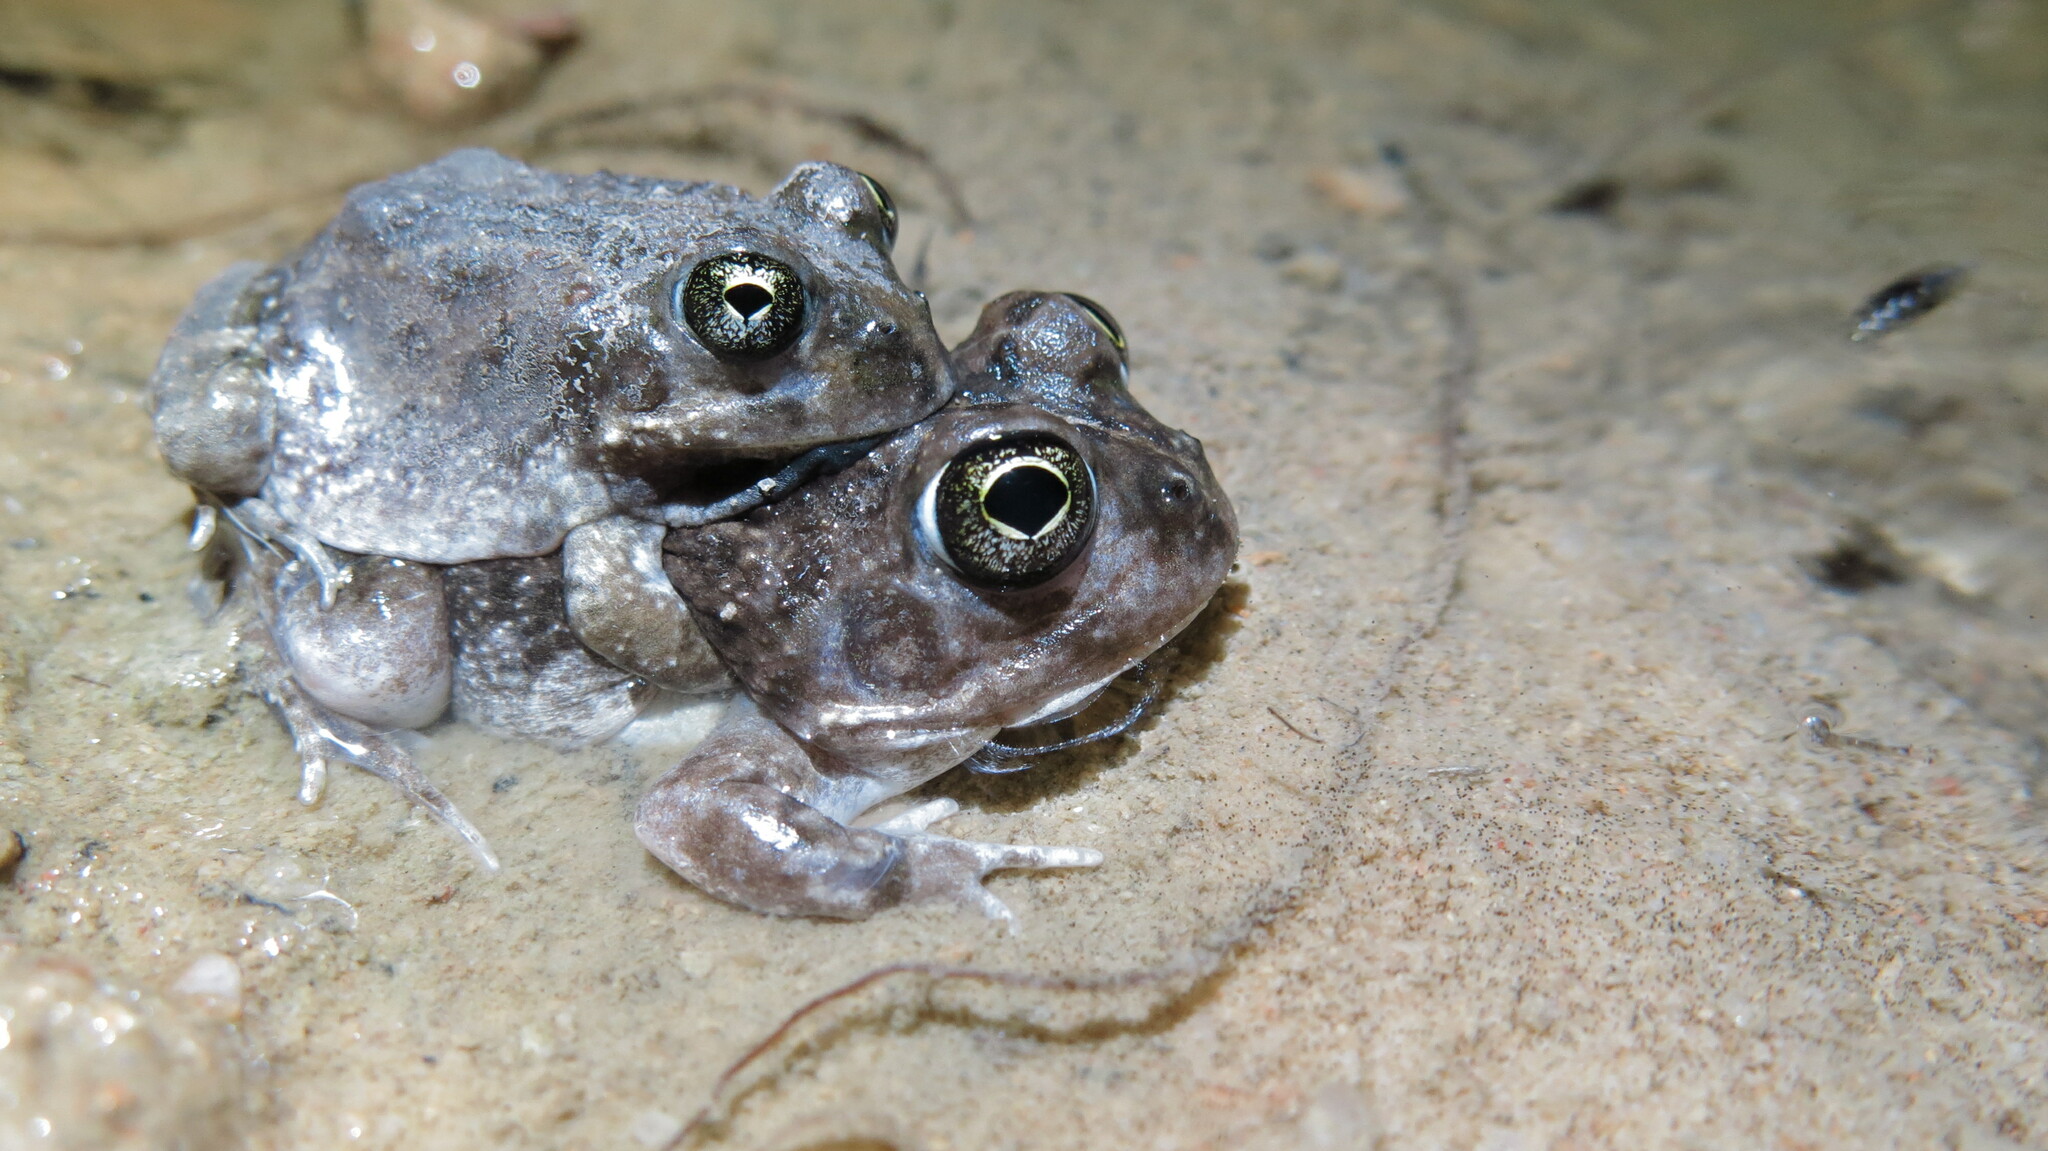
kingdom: Animalia
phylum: Chordata
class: Amphibia
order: Anura
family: Pyxicephalidae
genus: Tomopterna
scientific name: Tomopterna delalandii
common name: Delalande's burrowing bullfrog
